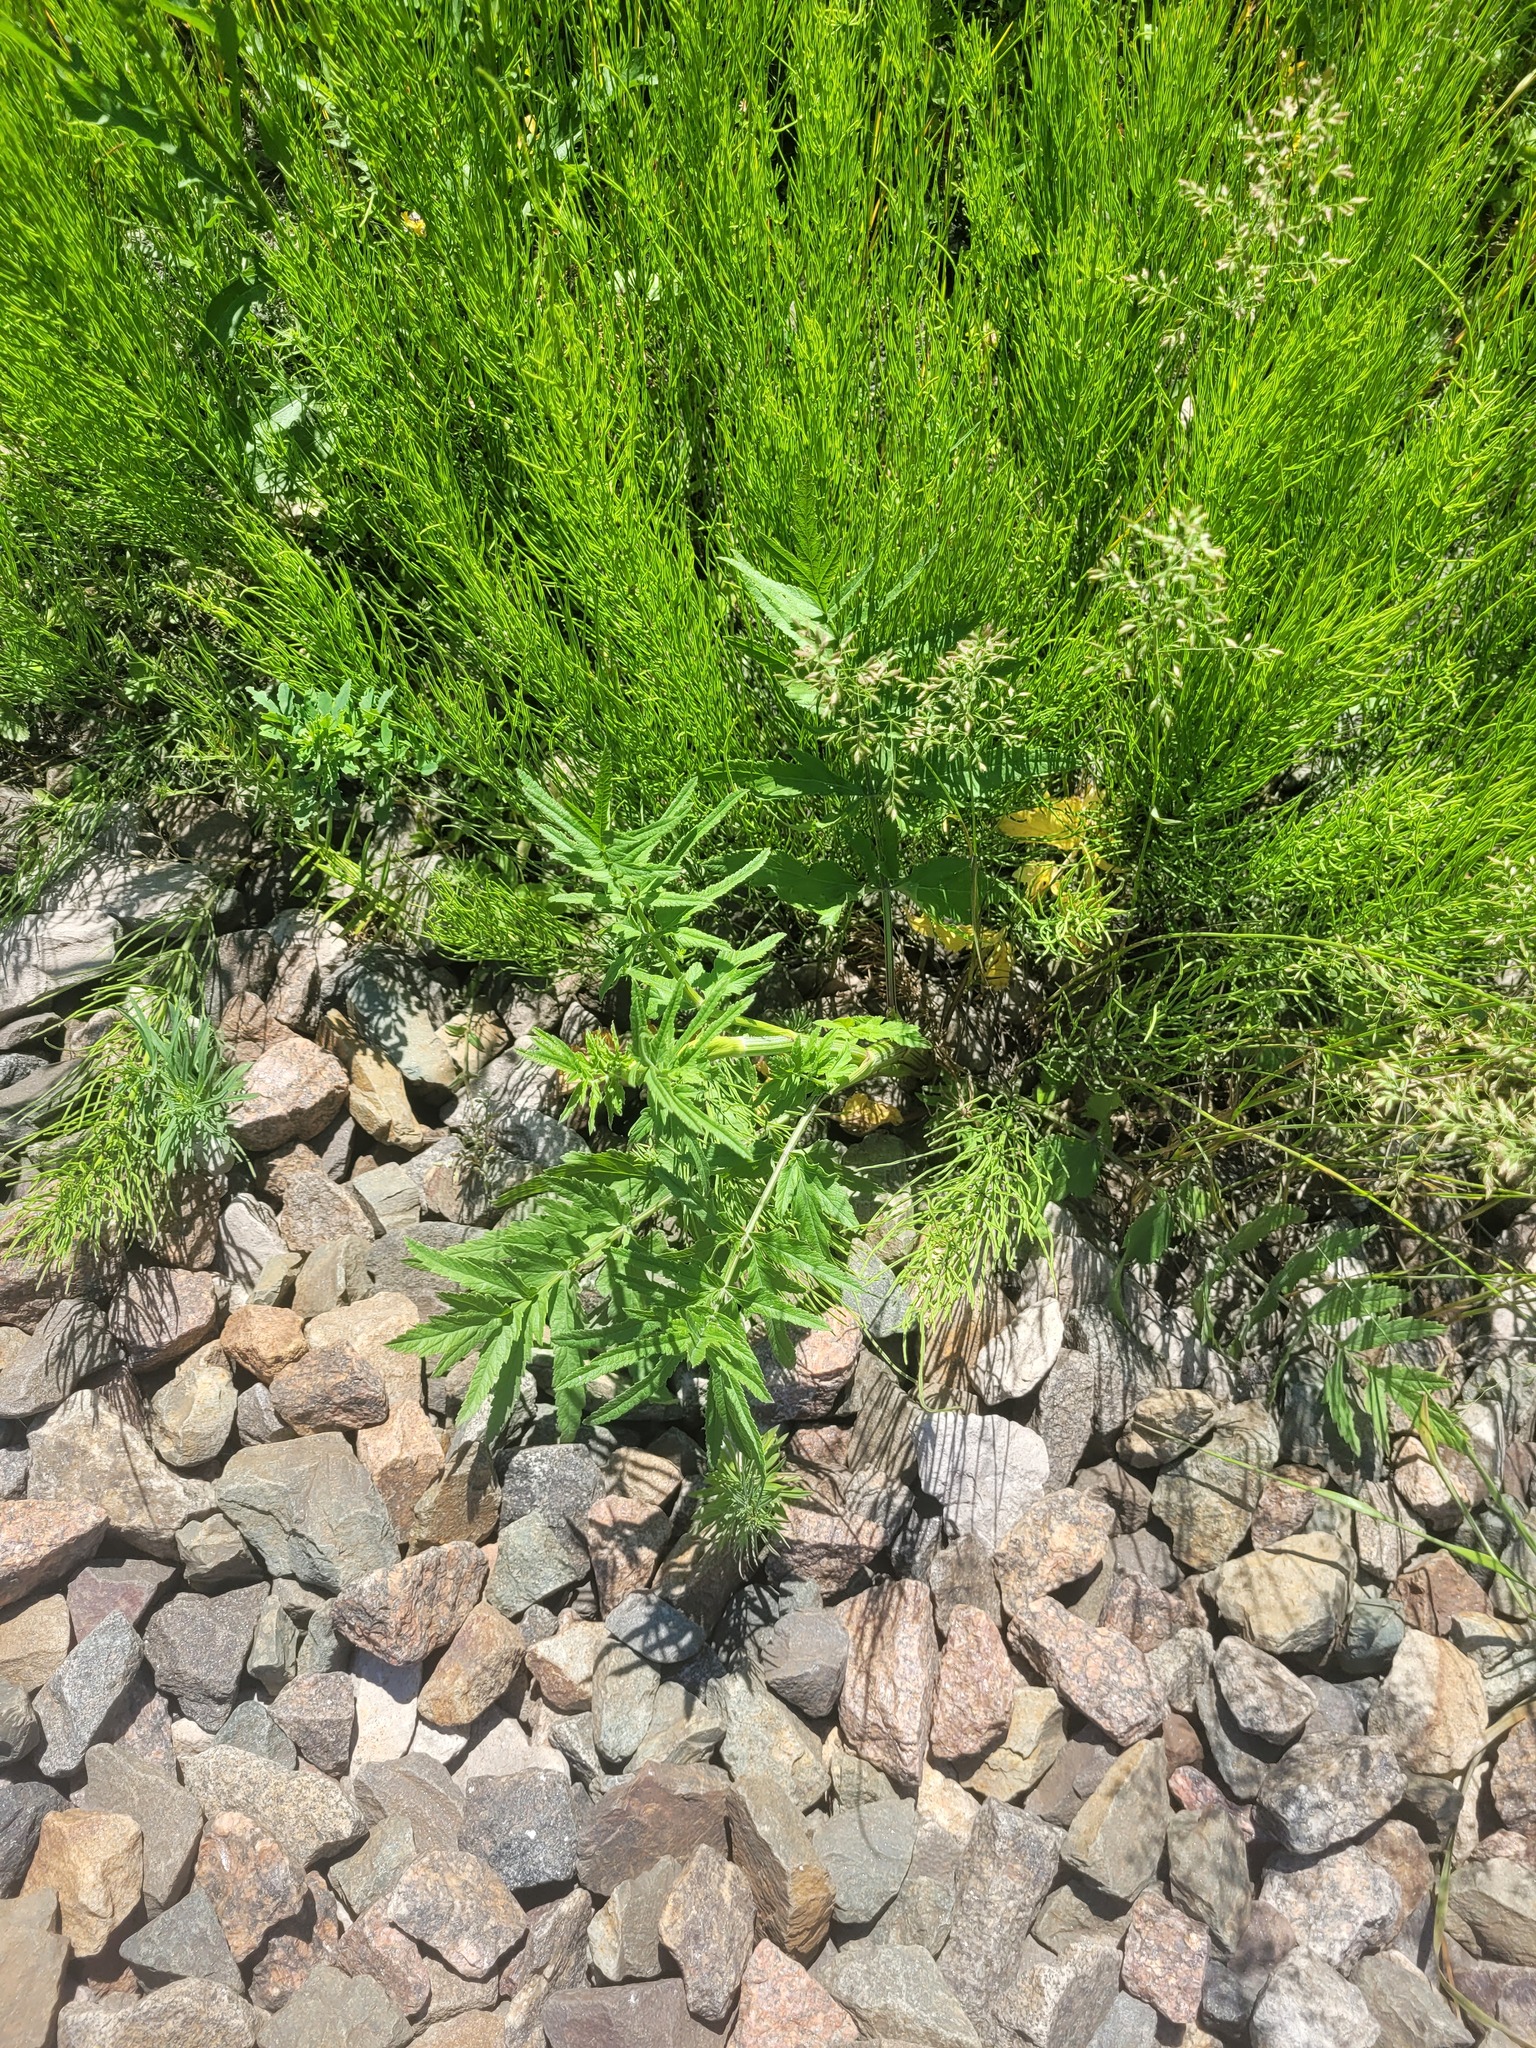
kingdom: Plantae
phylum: Tracheophyta
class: Magnoliopsida
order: Apiales
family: Apiaceae
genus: Pastinaca
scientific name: Pastinaca sativa
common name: Wild parsnip
